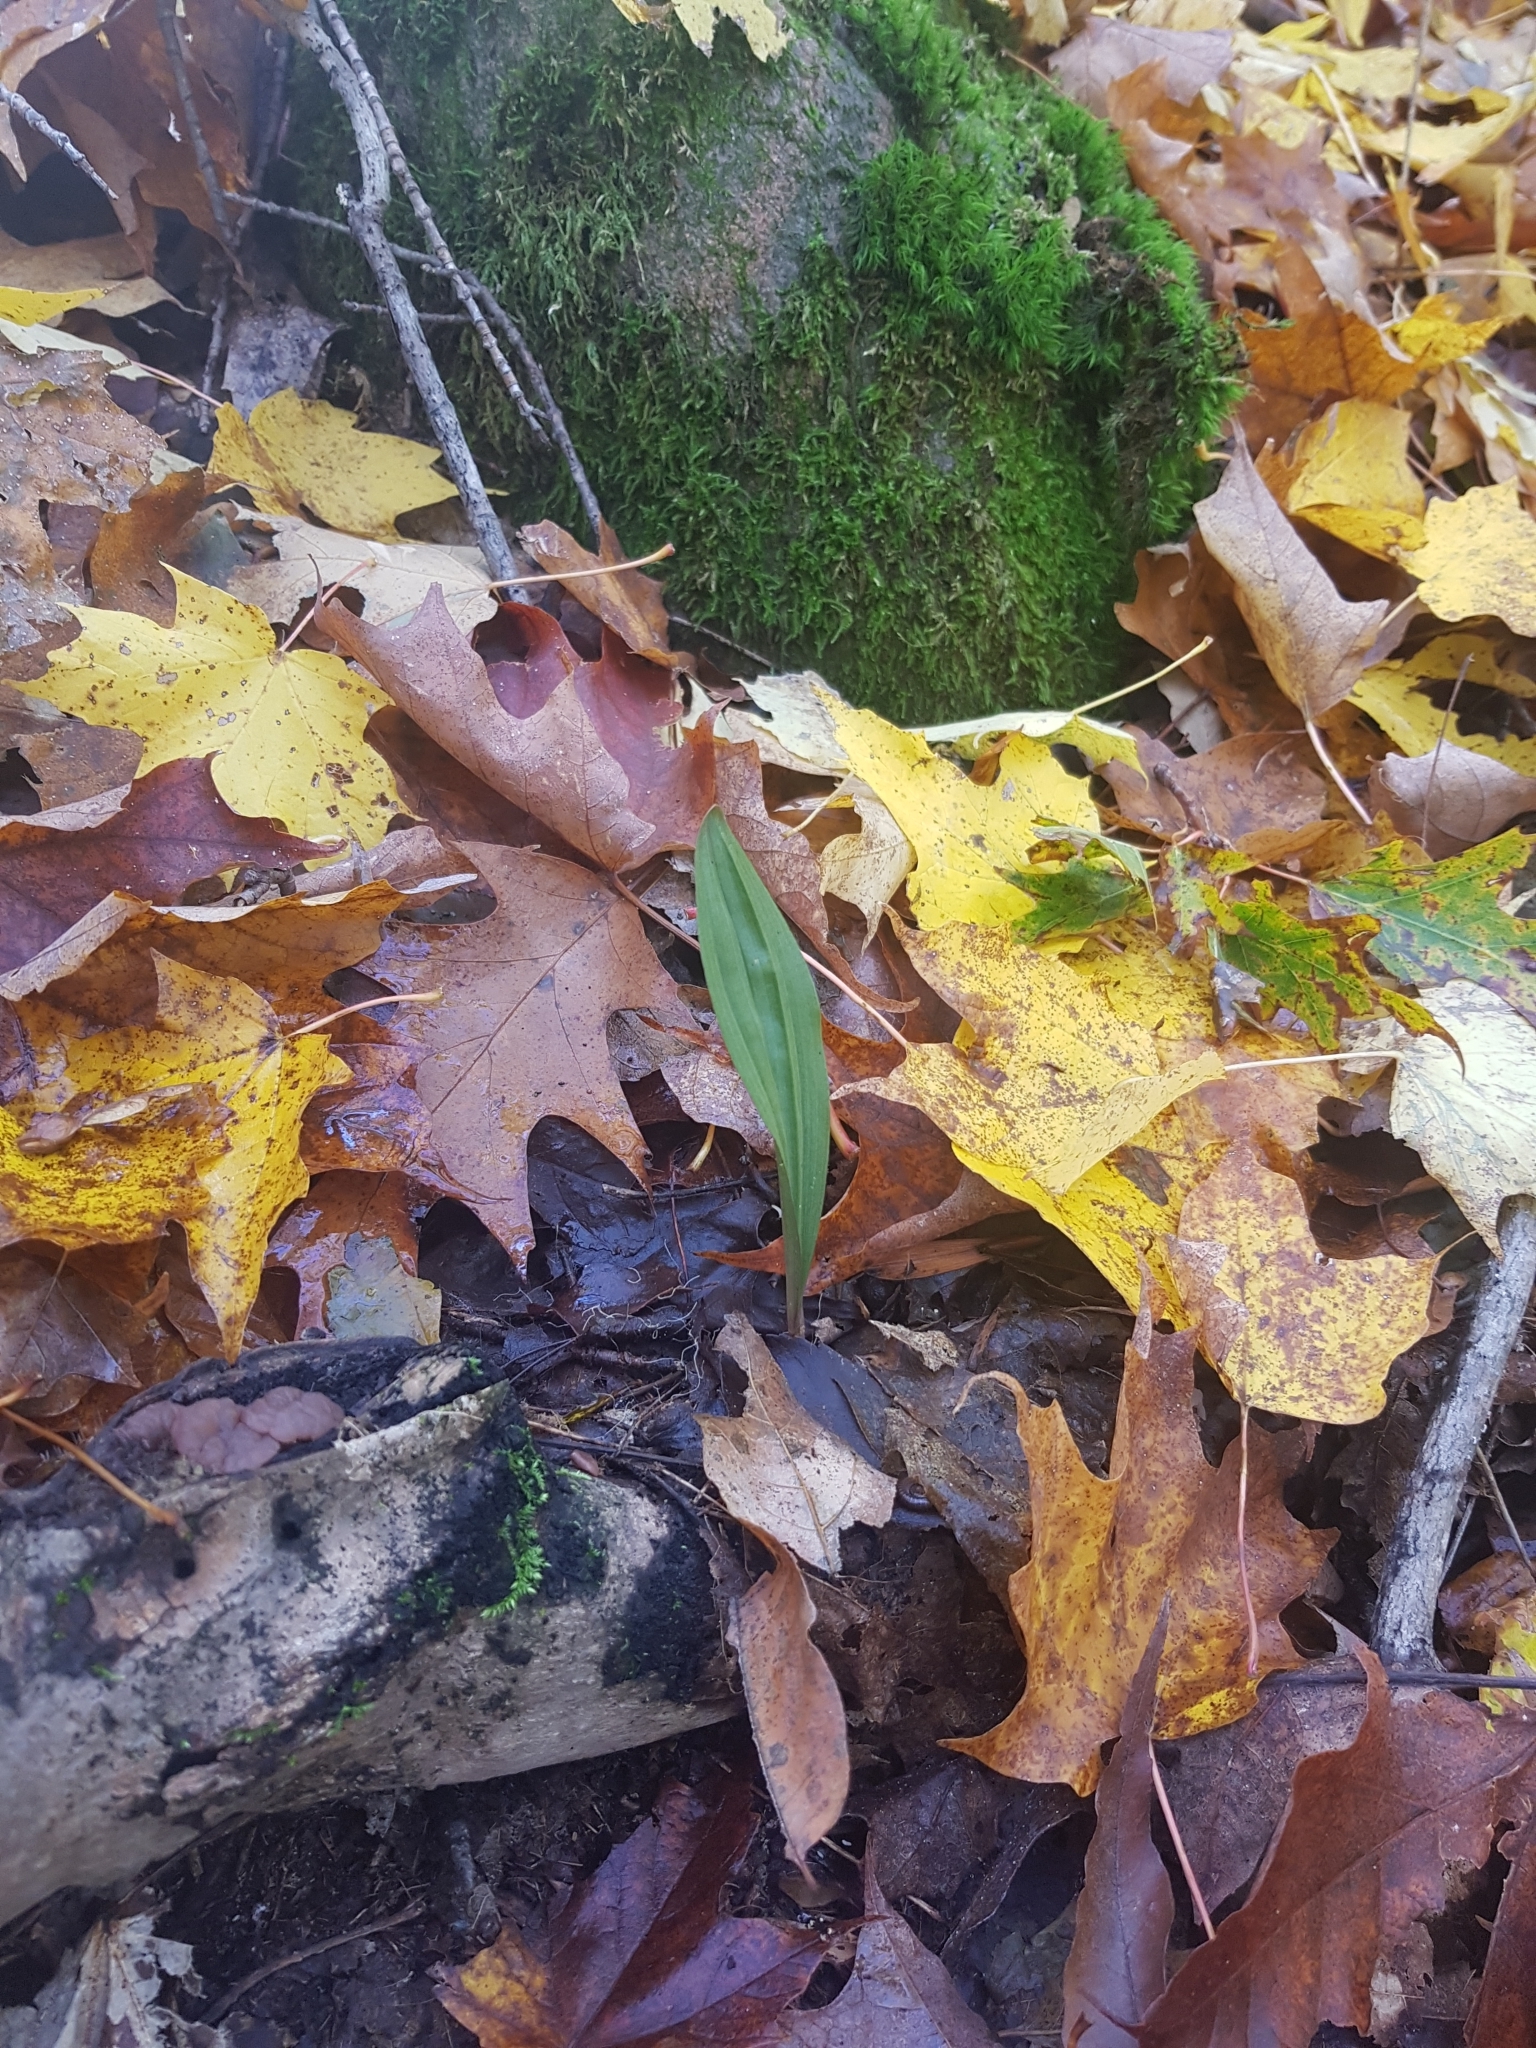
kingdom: Plantae
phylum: Tracheophyta
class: Liliopsida
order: Asparagales
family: Orchidaceae
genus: Aplectrum
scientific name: Aplectrum hyemale
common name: Adam-and-eve
